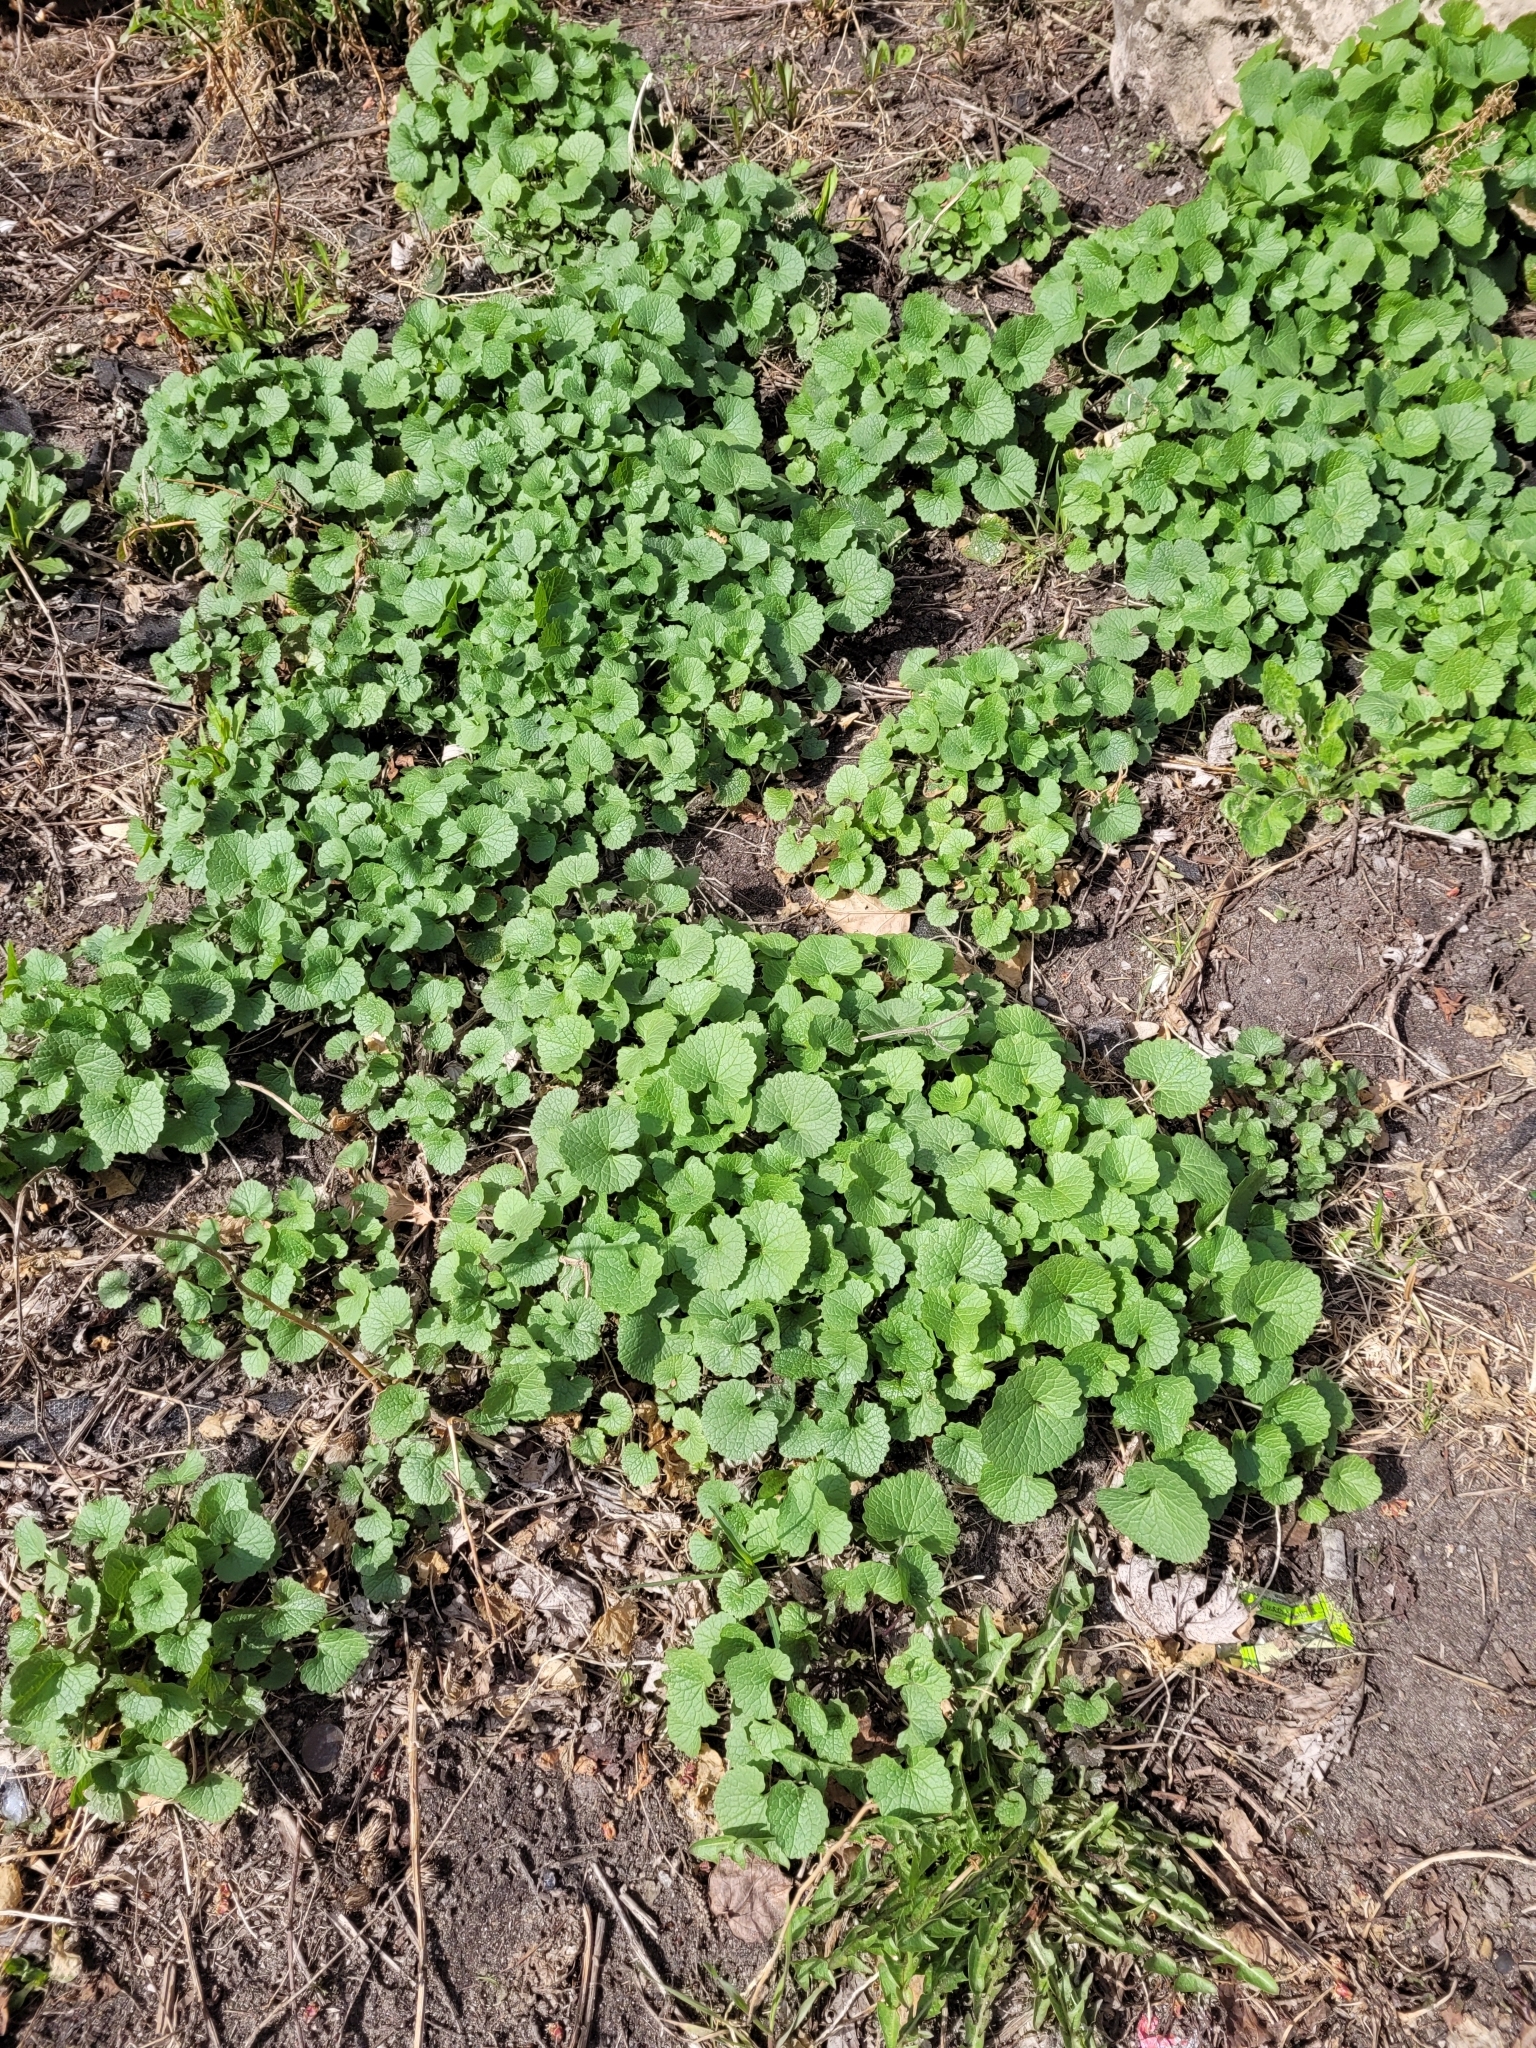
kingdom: Plantae
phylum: Tracheophyta
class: Magnoliopsida
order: Brassicales
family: Brassicaceae
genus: Alliaria
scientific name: Alliaria petiolata
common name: Garlic mustard
